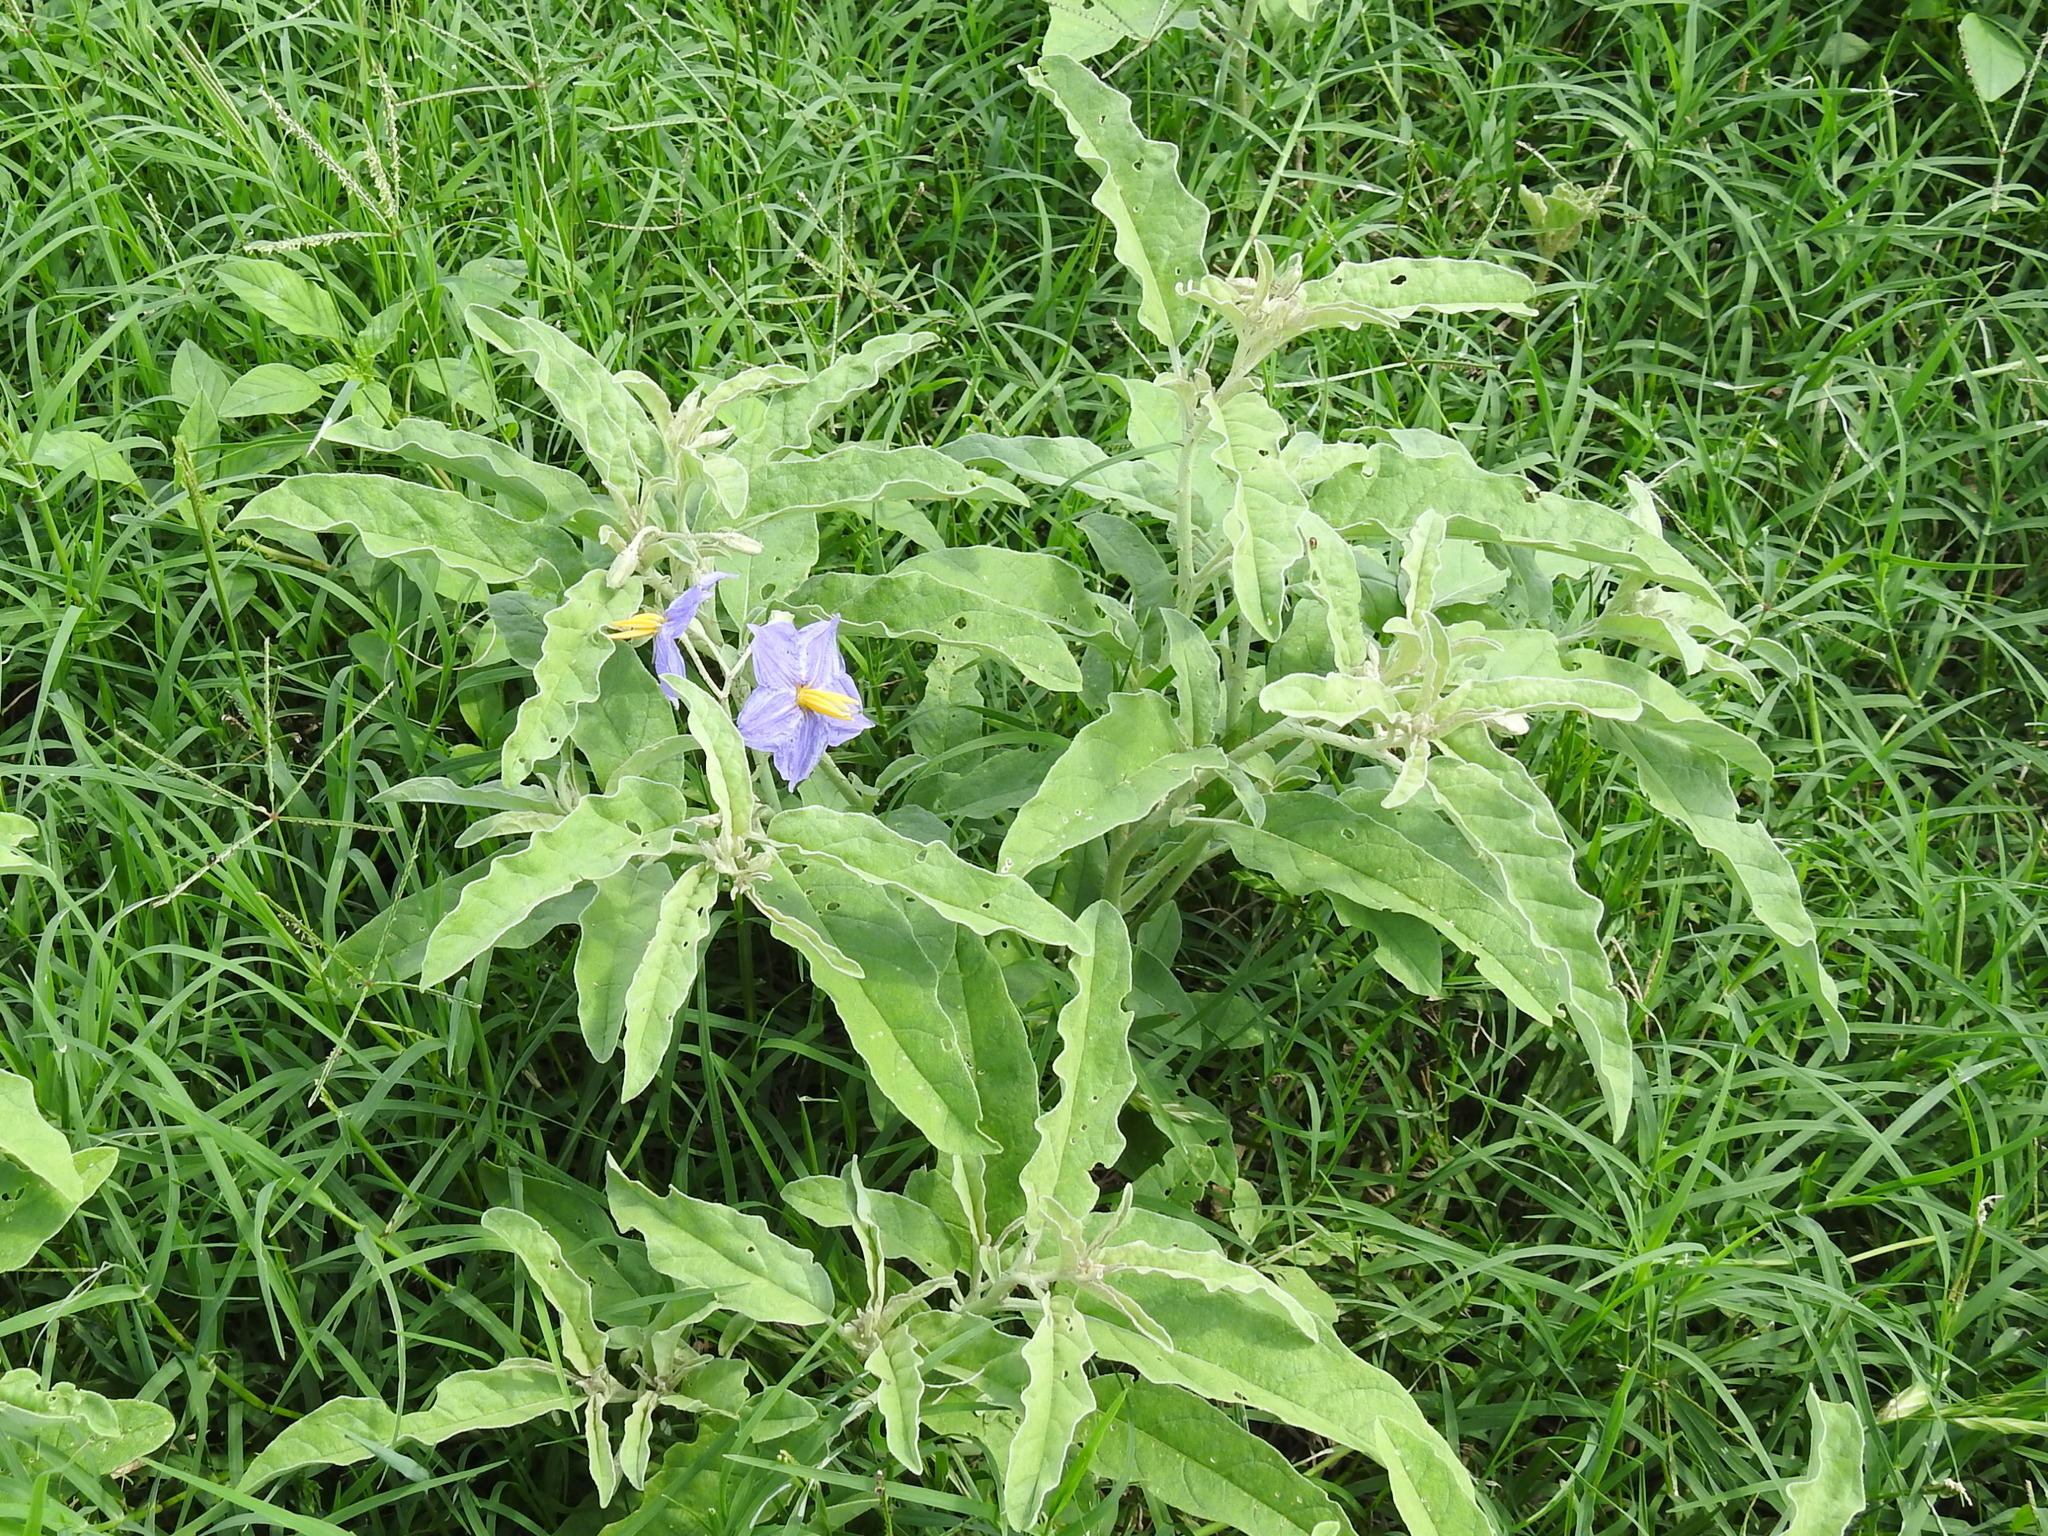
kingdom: Plantae
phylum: Tracheophyta
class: Magnoliopsida
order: Solanales
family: Solanaceae
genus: Solanum
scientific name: Solanum elaeagnifolium
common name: Silverleaf nightshade
